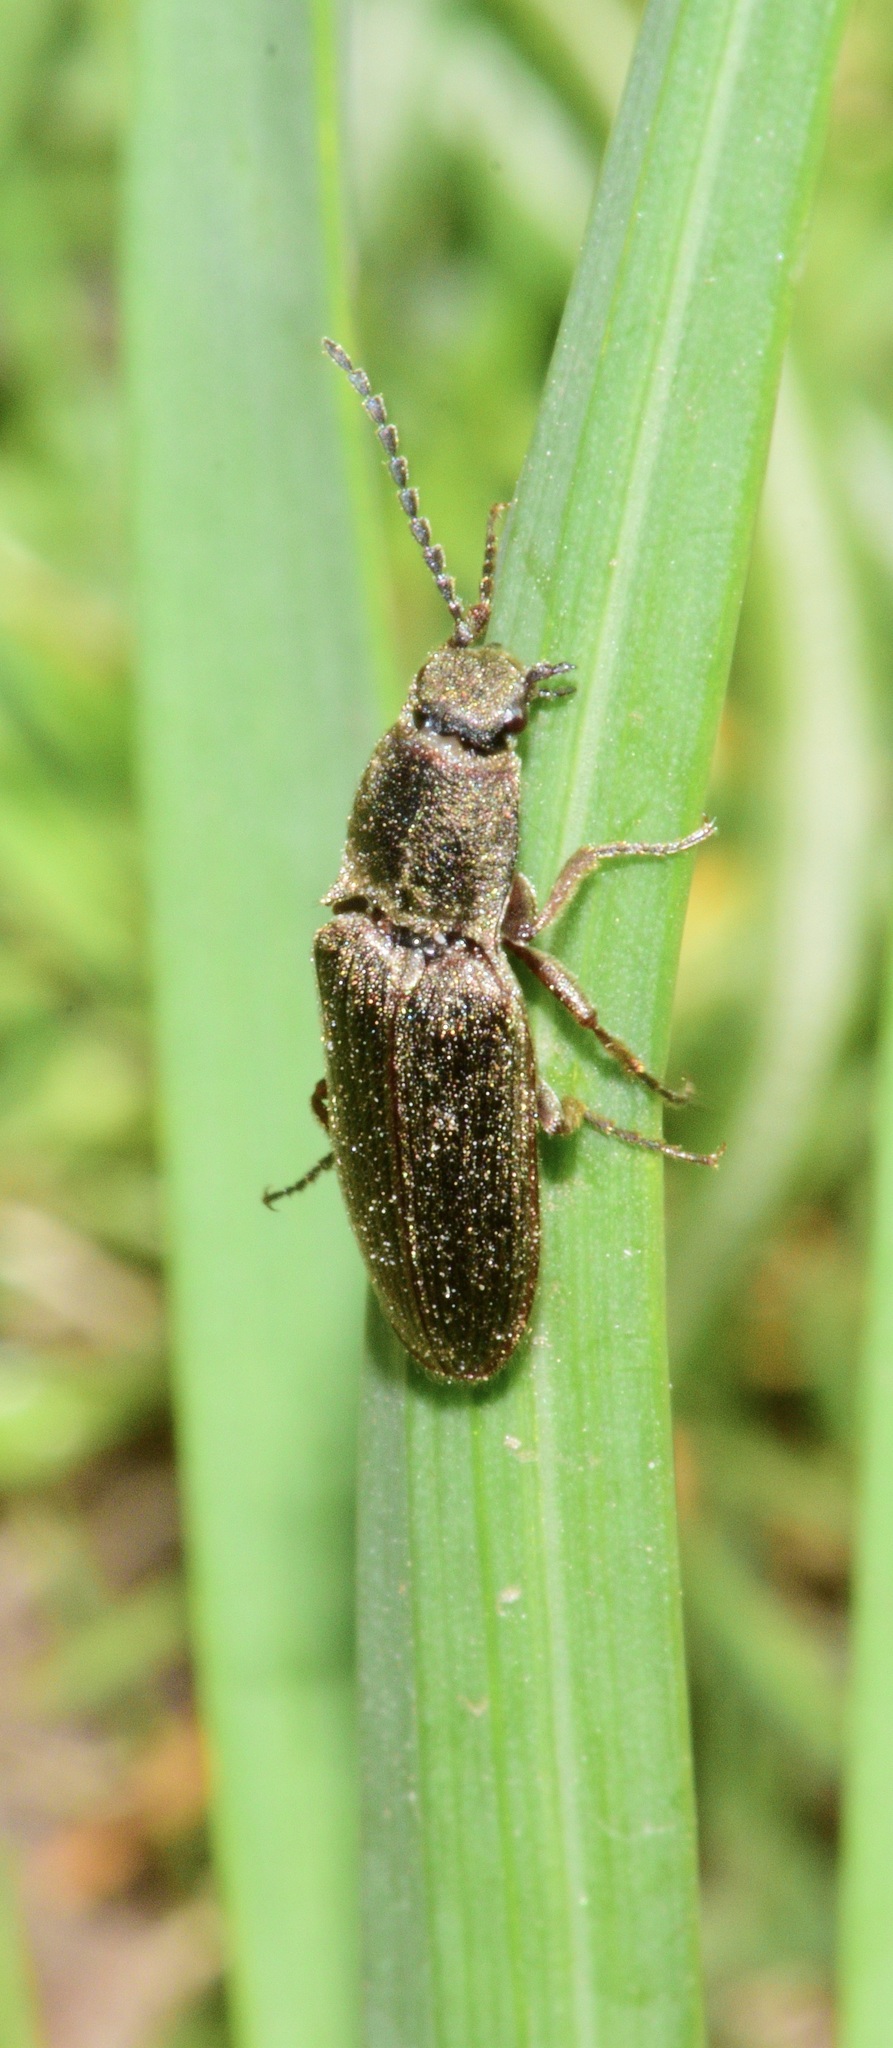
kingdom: Animalia
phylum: Arthropoda
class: Insecta
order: Coleoptera
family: Elateridae
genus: Sylvanelater
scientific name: Sylvanelater cylindriformis
